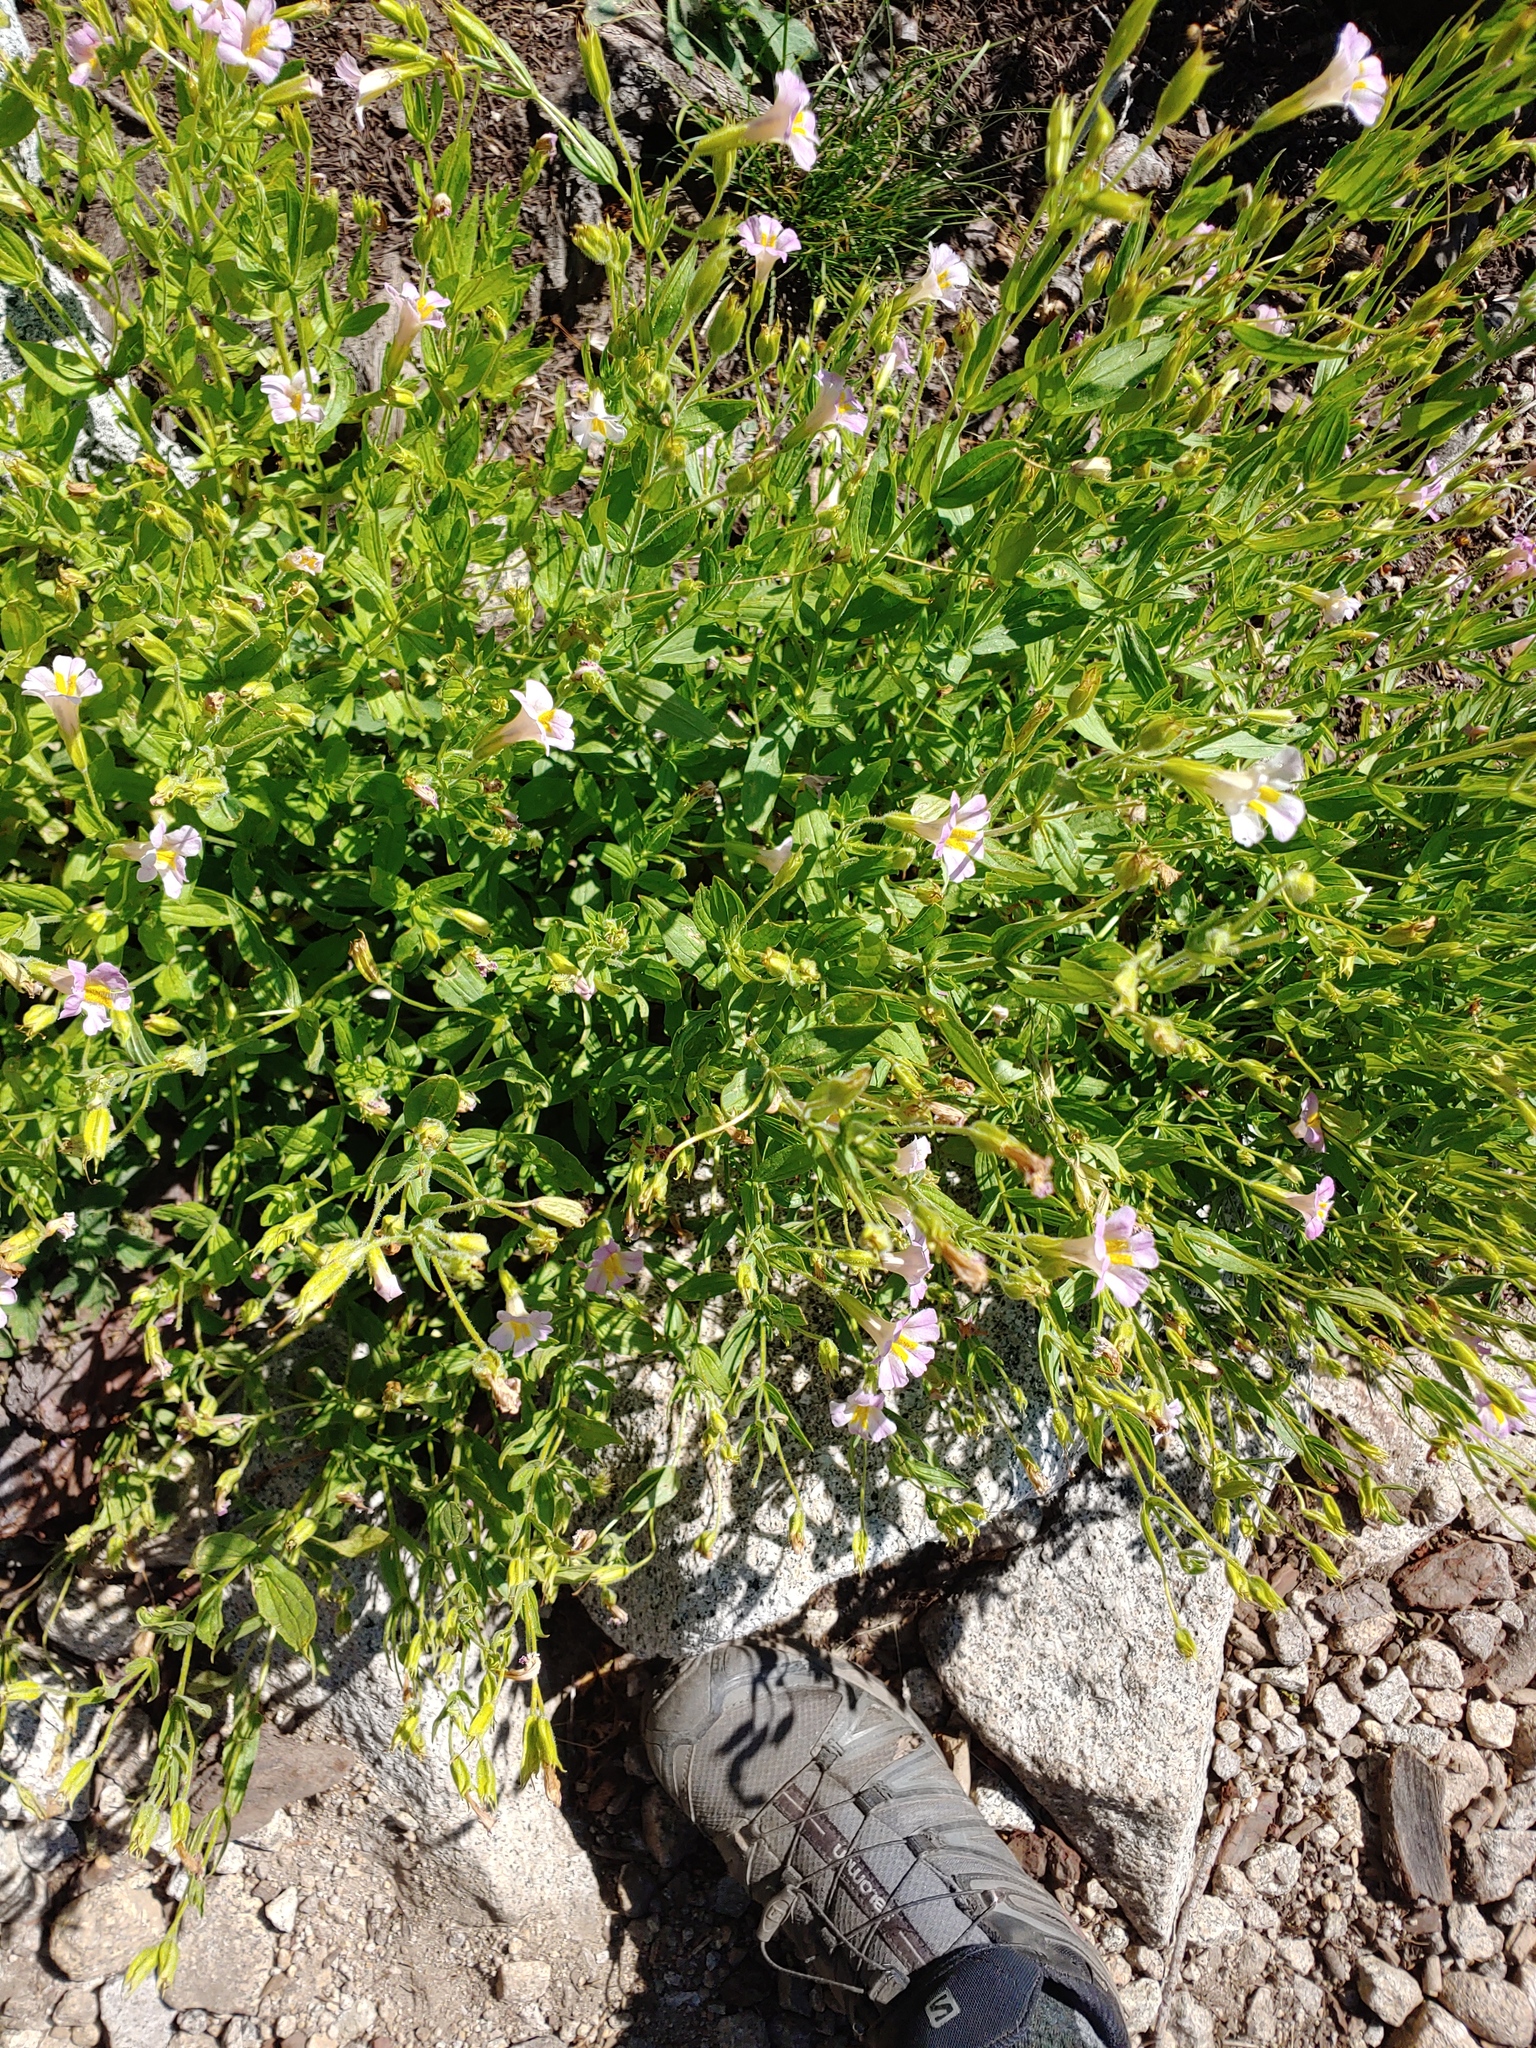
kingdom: Plantae
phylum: Tracheophyta
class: Magnoliopsida
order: Lamiales
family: Phrymaceae
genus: Erythranthe
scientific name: Erythranthe erubescens
